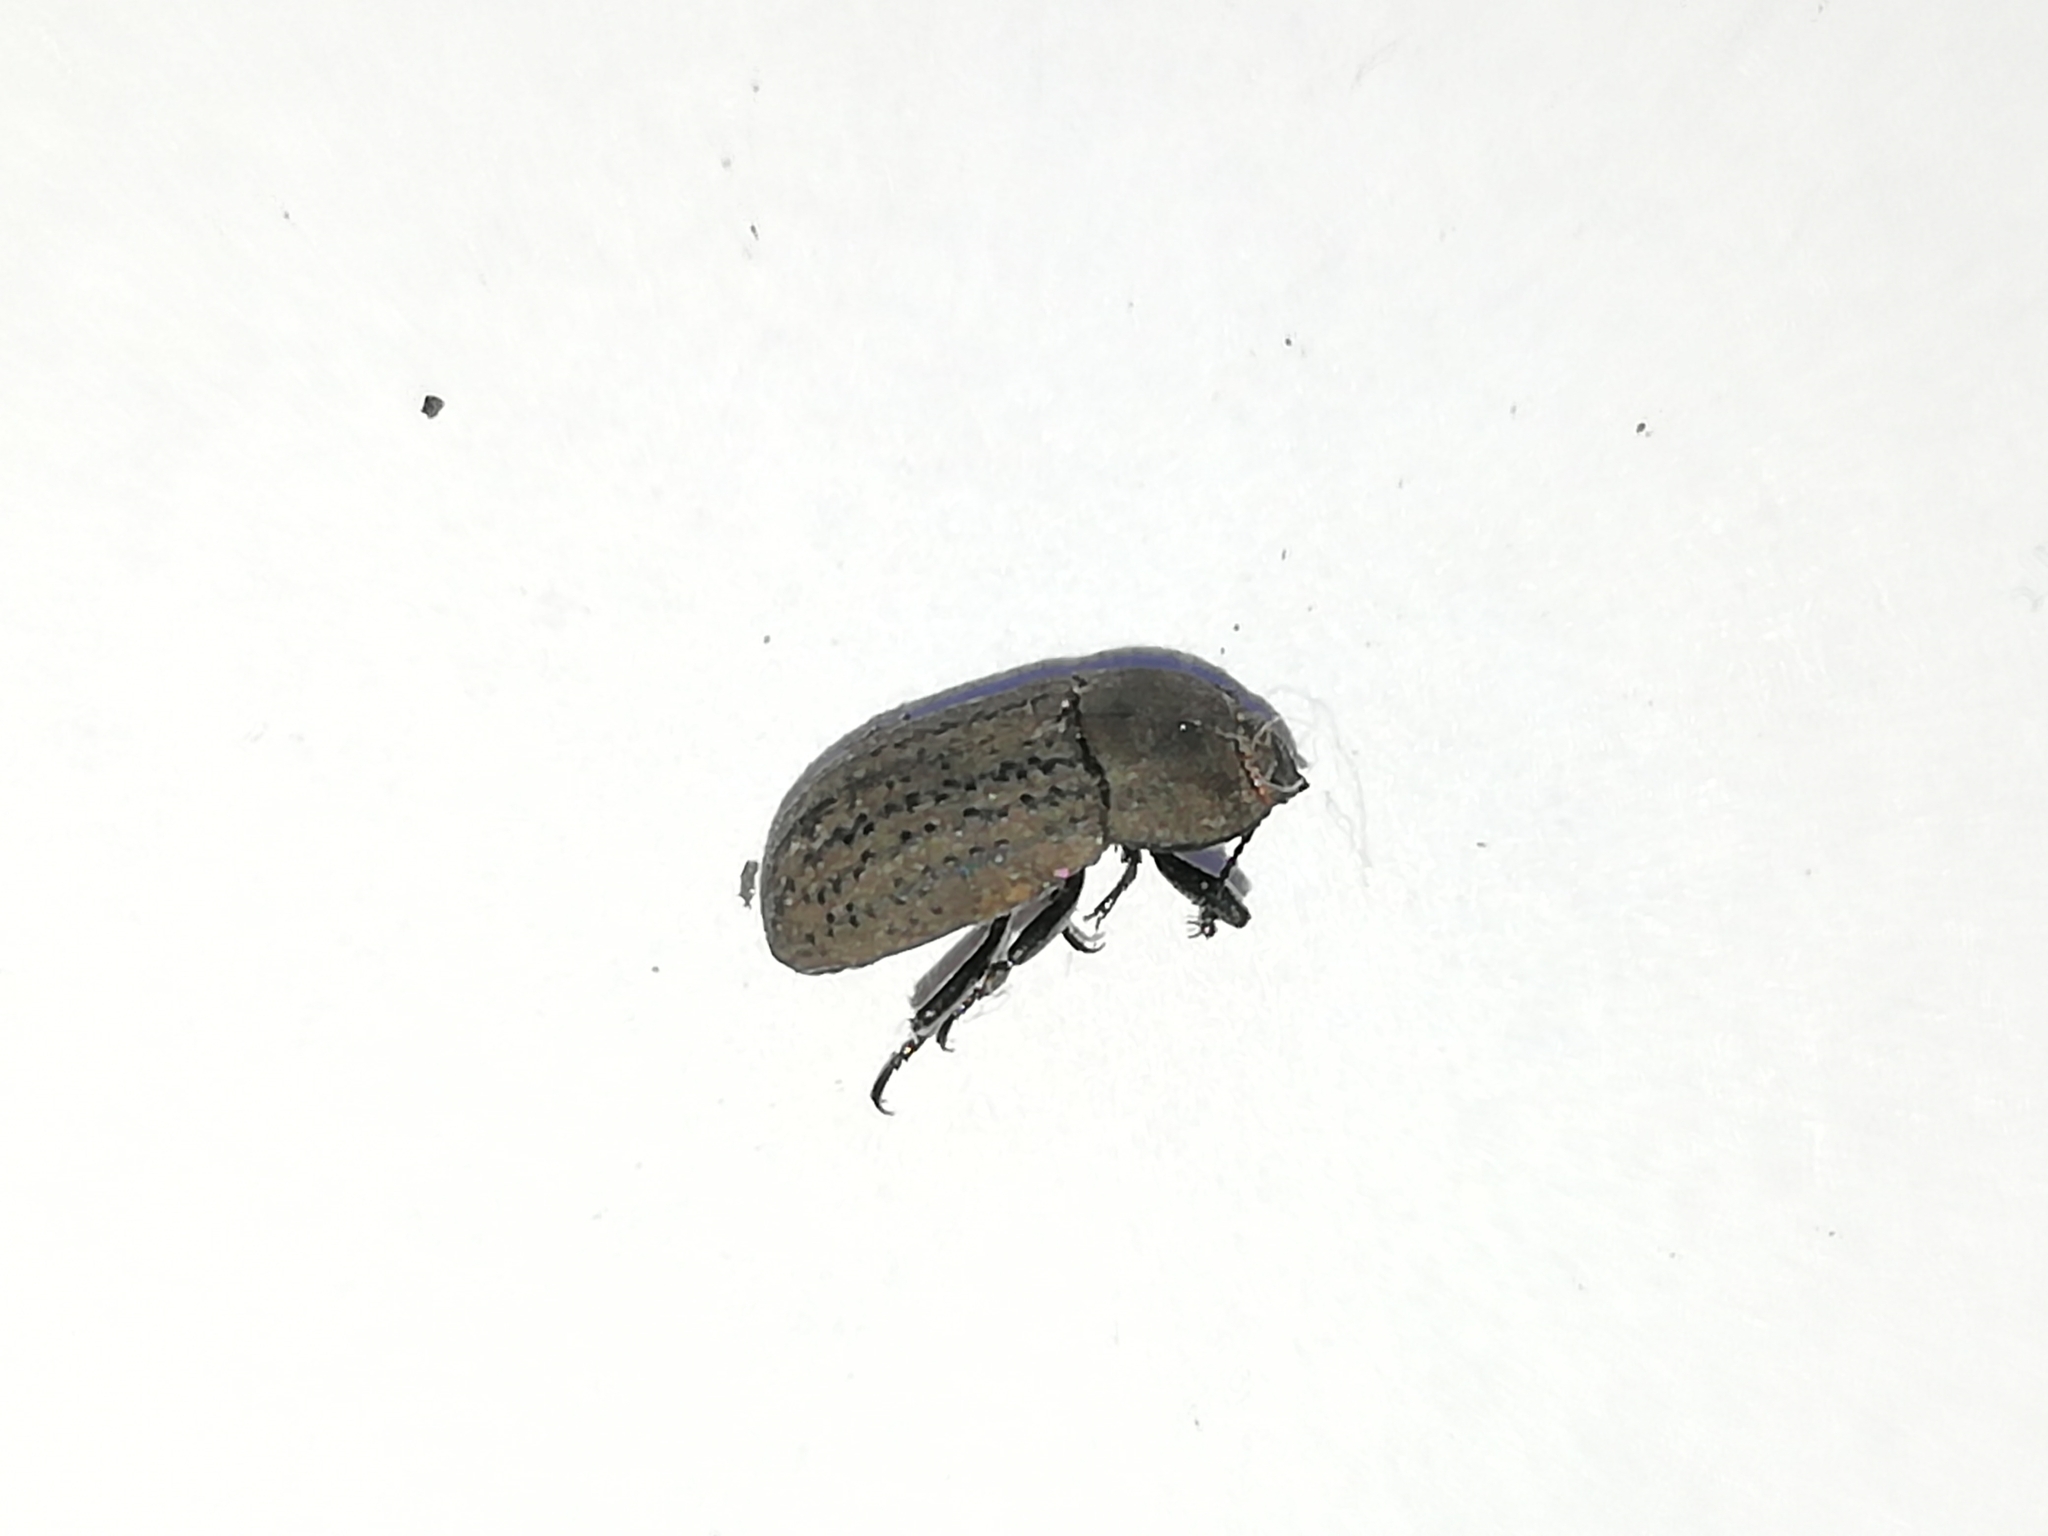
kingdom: Animalia
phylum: Arthropoda
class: Insecta
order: Coleoptera
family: Tenebrionidae
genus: Opatrum
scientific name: Opatrum sabulosum
